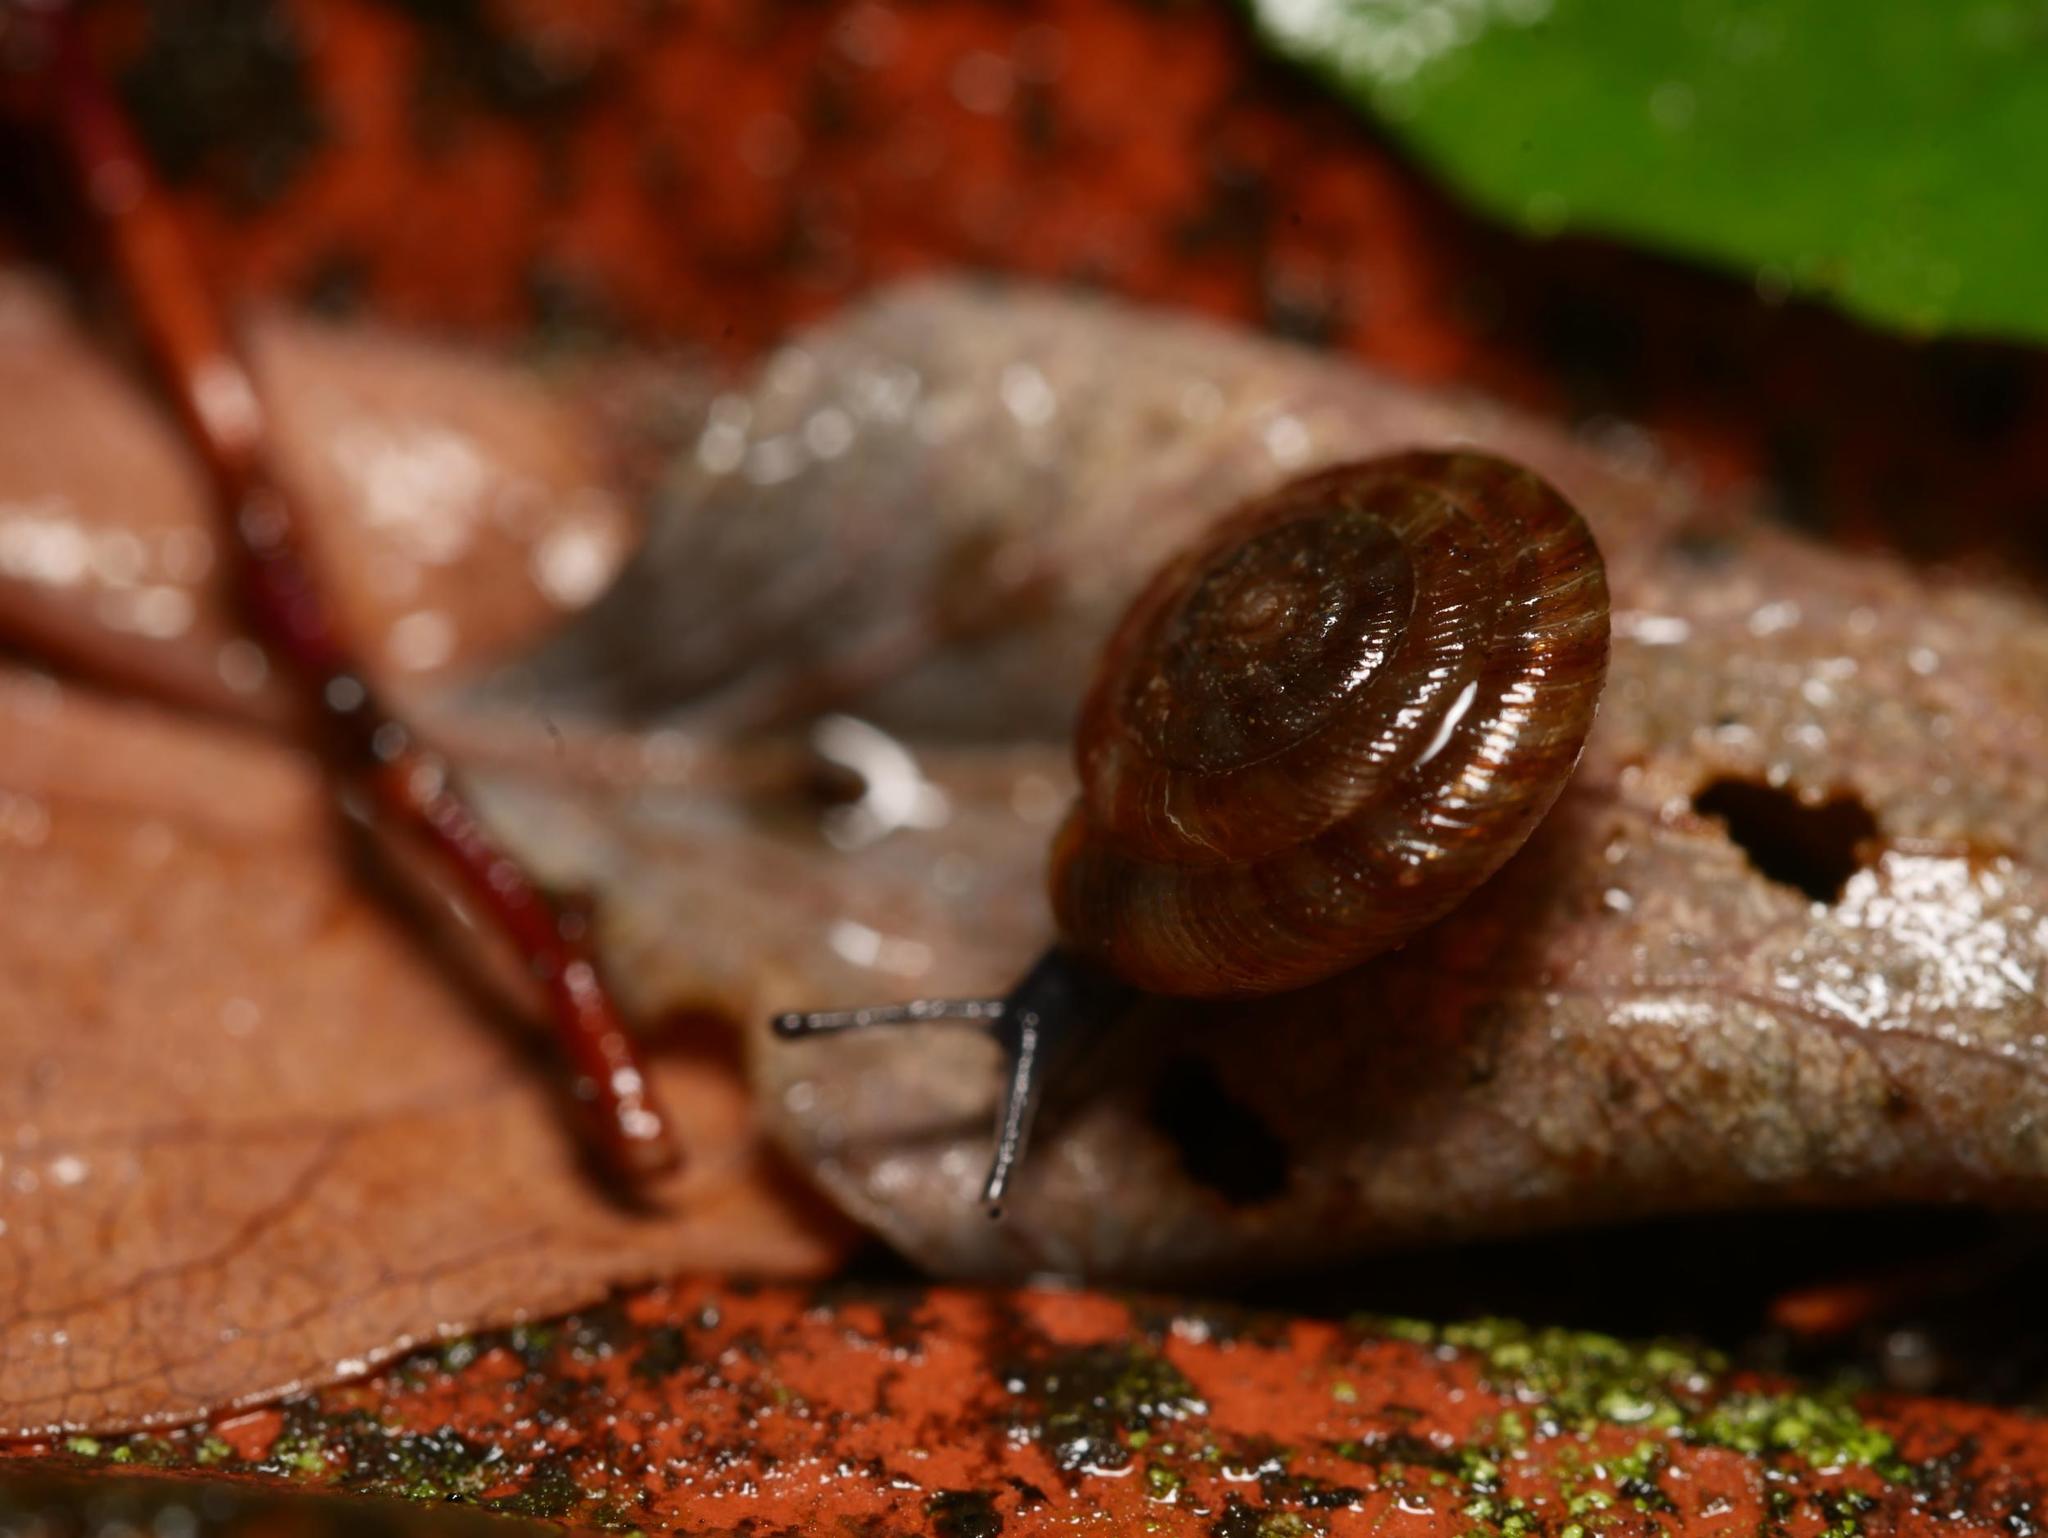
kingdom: Animalia
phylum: Mollusca
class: Gastropoda
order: Stylommatophora
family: Discidae
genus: Discus
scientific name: Discus rotundatus
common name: Rounded snail
